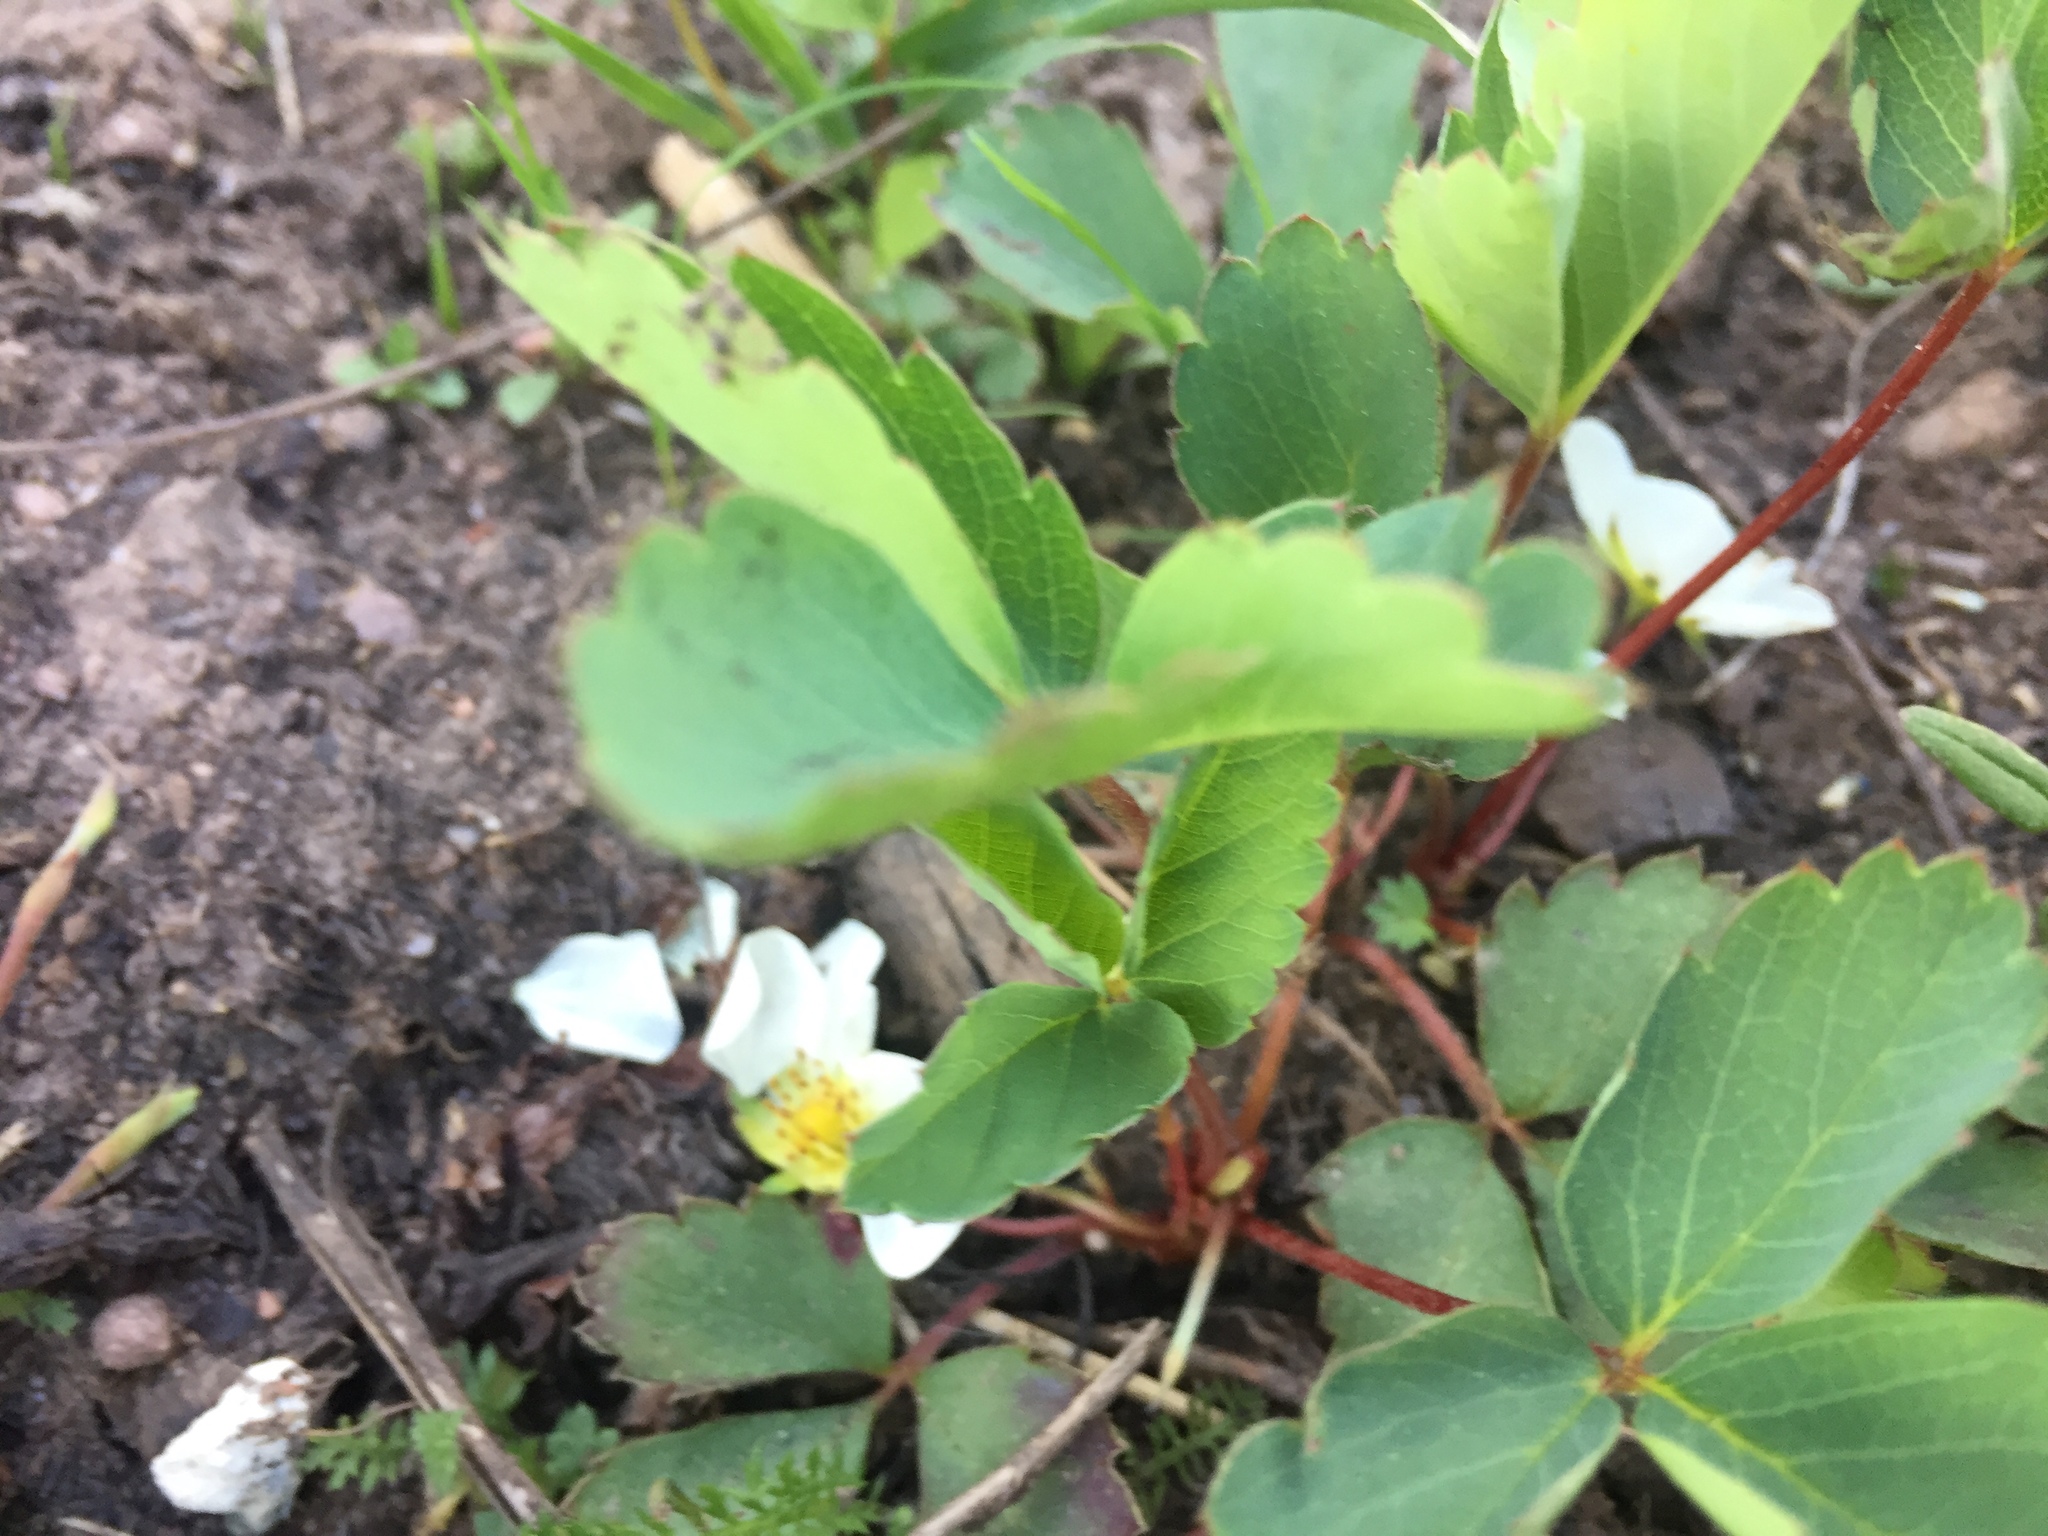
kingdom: Plantae
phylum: Tracheophyta
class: Magnoliopsida
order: Rosales
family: Rosaceae
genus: Fragaria
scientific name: Fragaria vesca
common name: Wild strawberry
